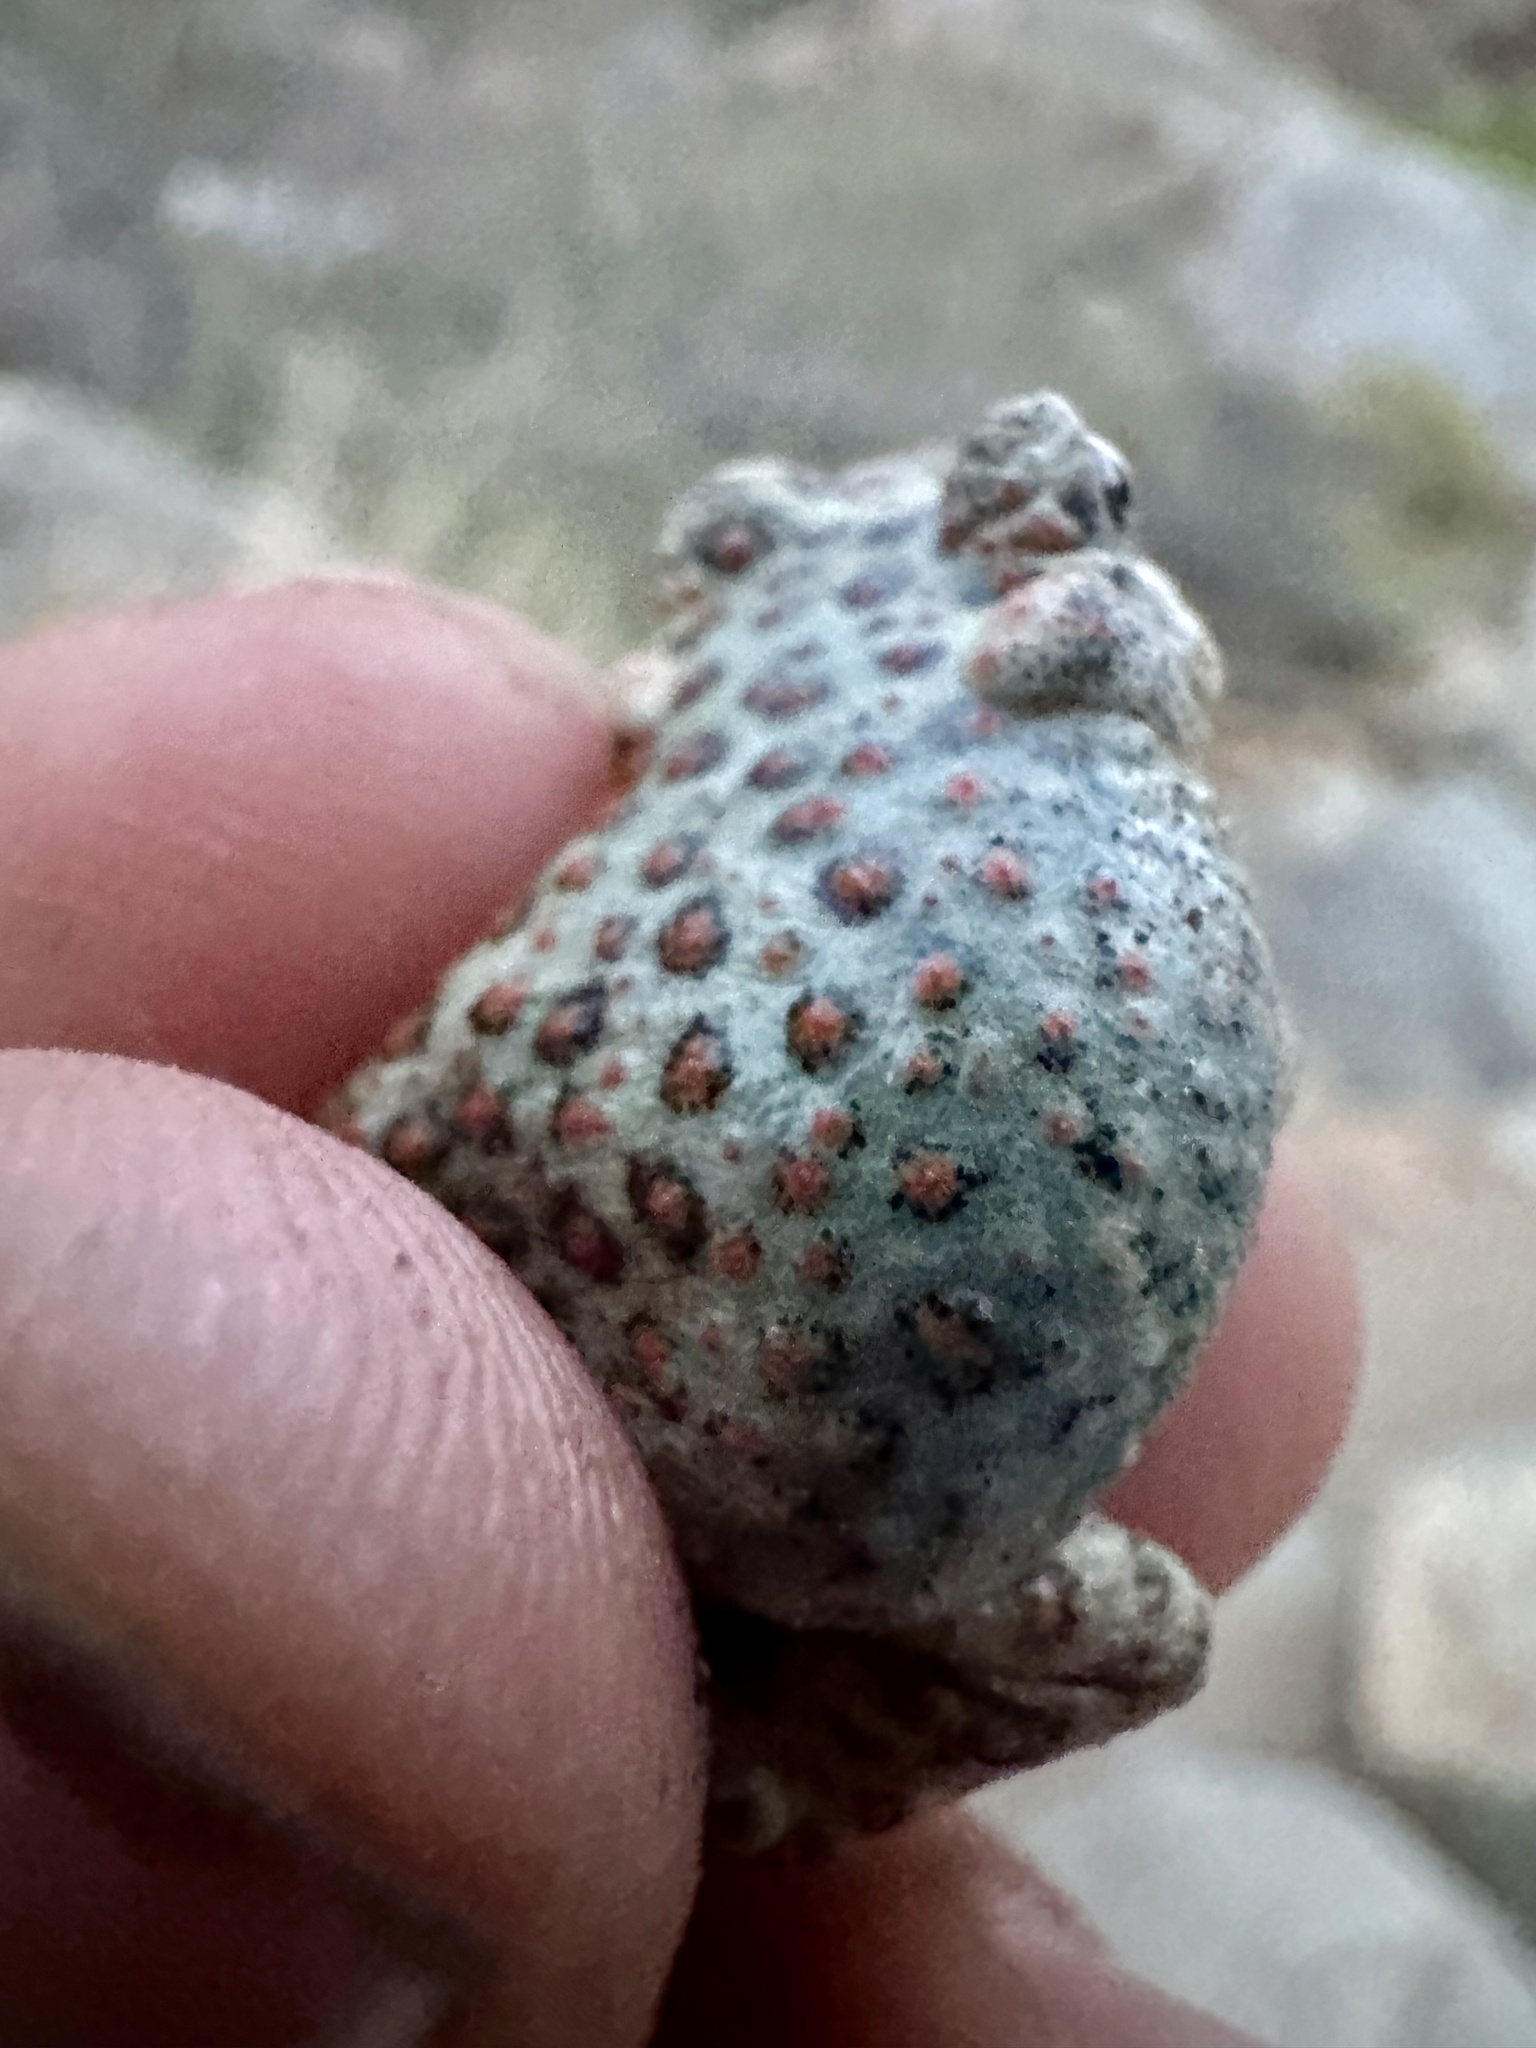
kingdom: Animalia
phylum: Chordata
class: Amphibia
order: Anura
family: Bufonidae
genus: Anaxyrus
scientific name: Anaxyrus punctatus
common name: Red-spotted toad
